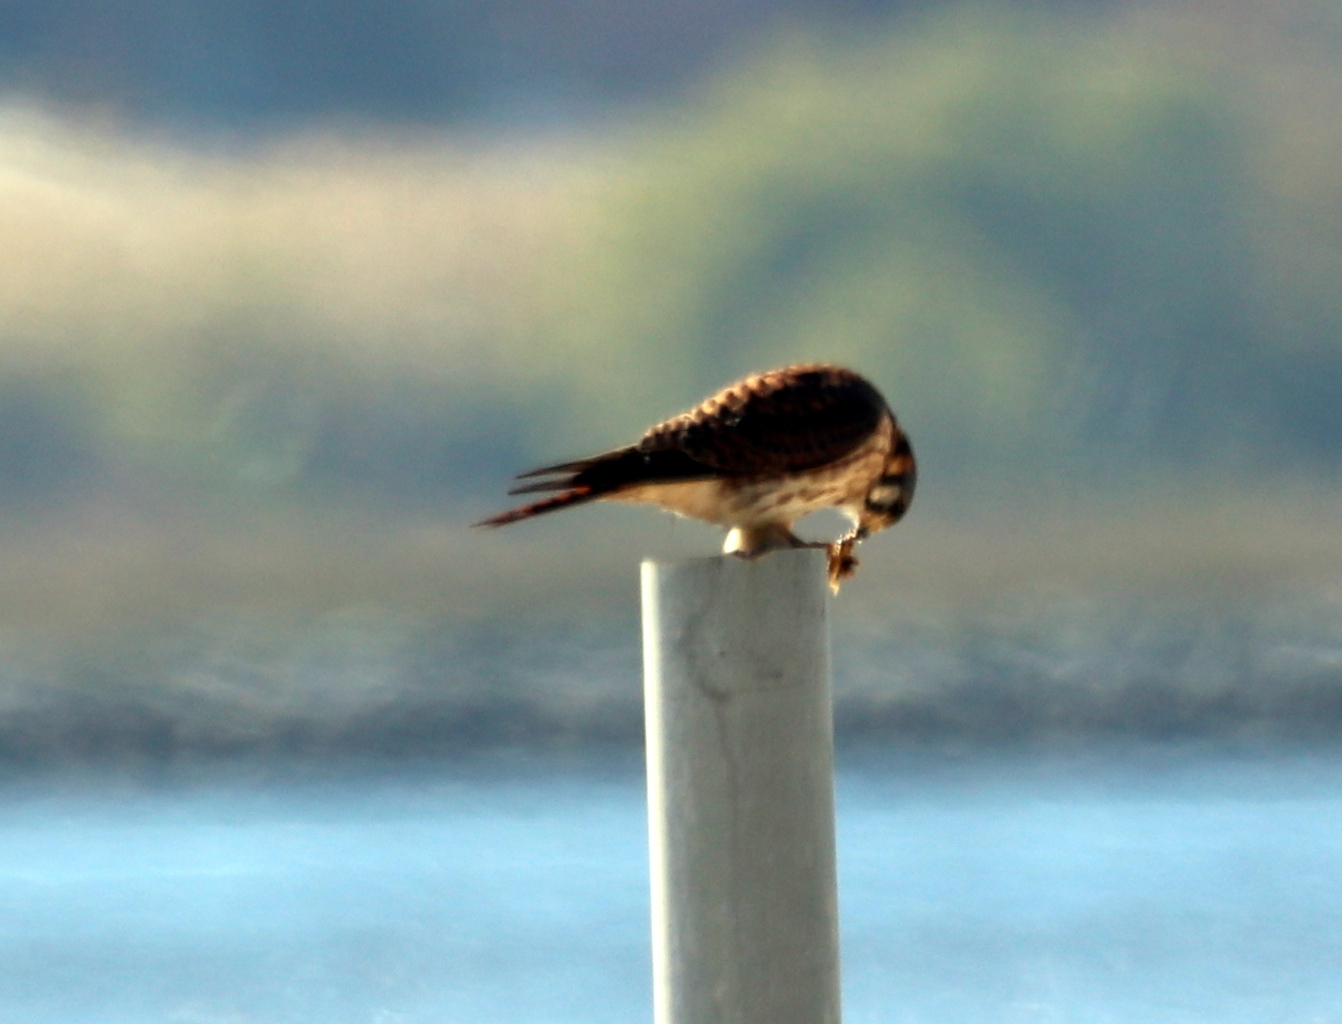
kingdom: Animalia
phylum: Chordata
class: Aves
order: Falconiformes
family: Falconidae
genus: Falco
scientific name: Falco sparverius
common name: American kestrel
